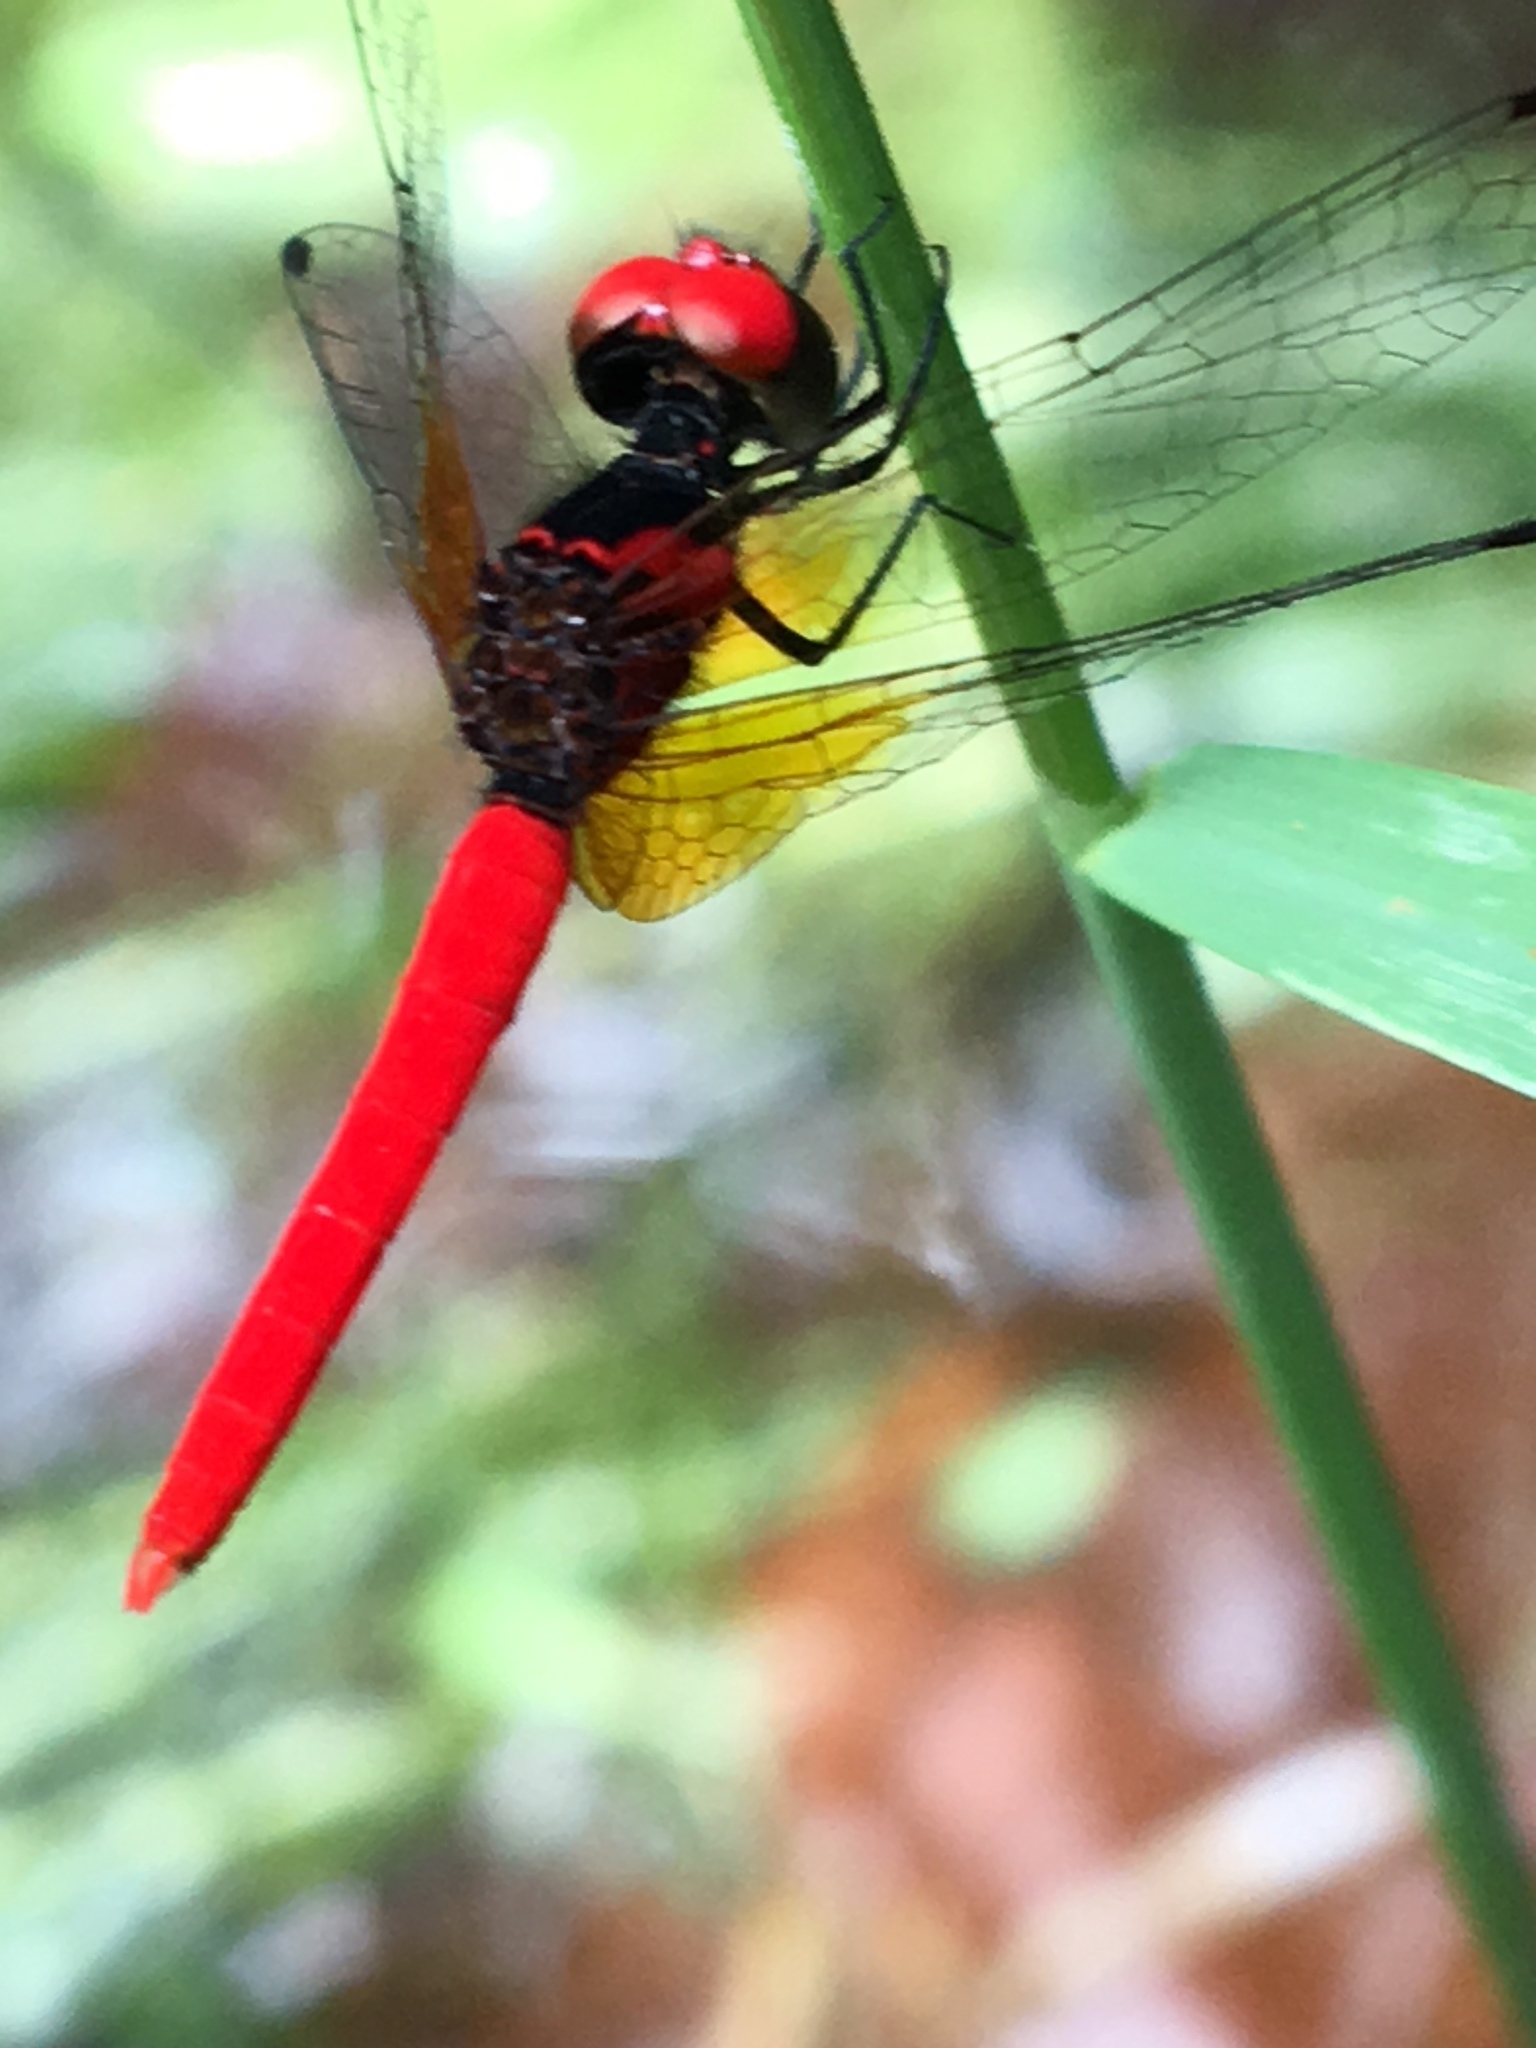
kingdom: Animalia
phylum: Arthropoda
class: Insecta
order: Odonata
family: Libellulidae
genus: Nannophya
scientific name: Nannophya pygmaea
